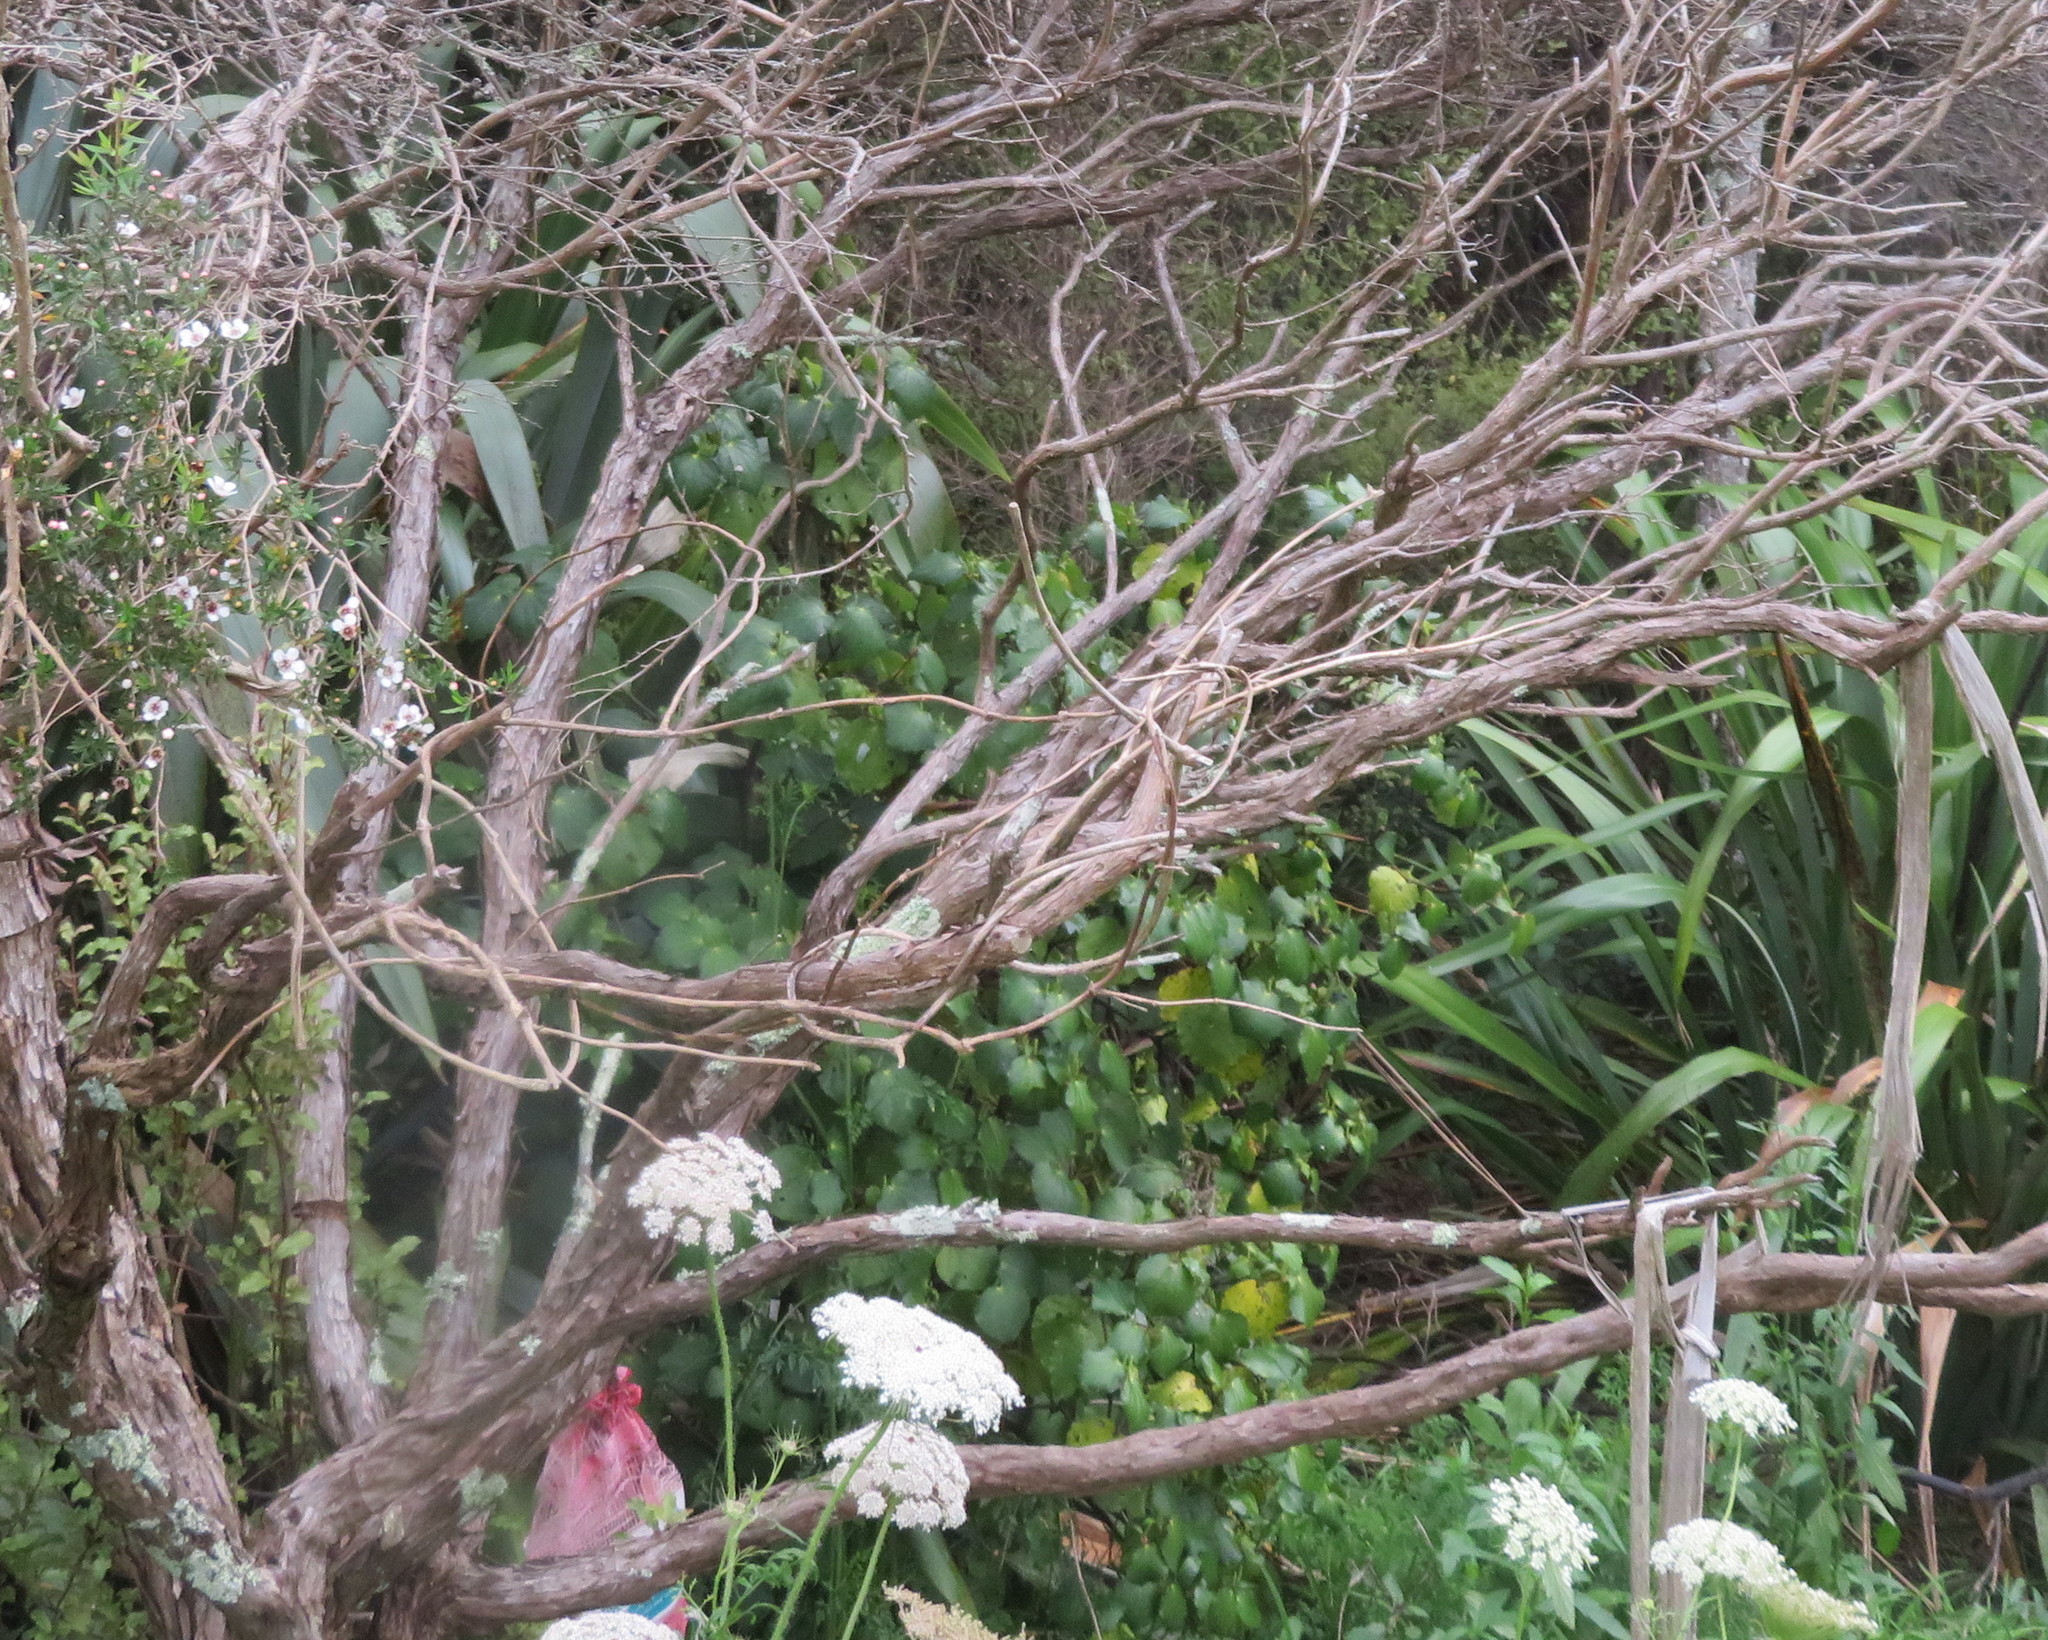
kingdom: Plantae
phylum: Tracheophyta
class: Magnoliopsida
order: Piperales
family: Piperaceae
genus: Macropiper
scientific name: Macropiper excelsum
